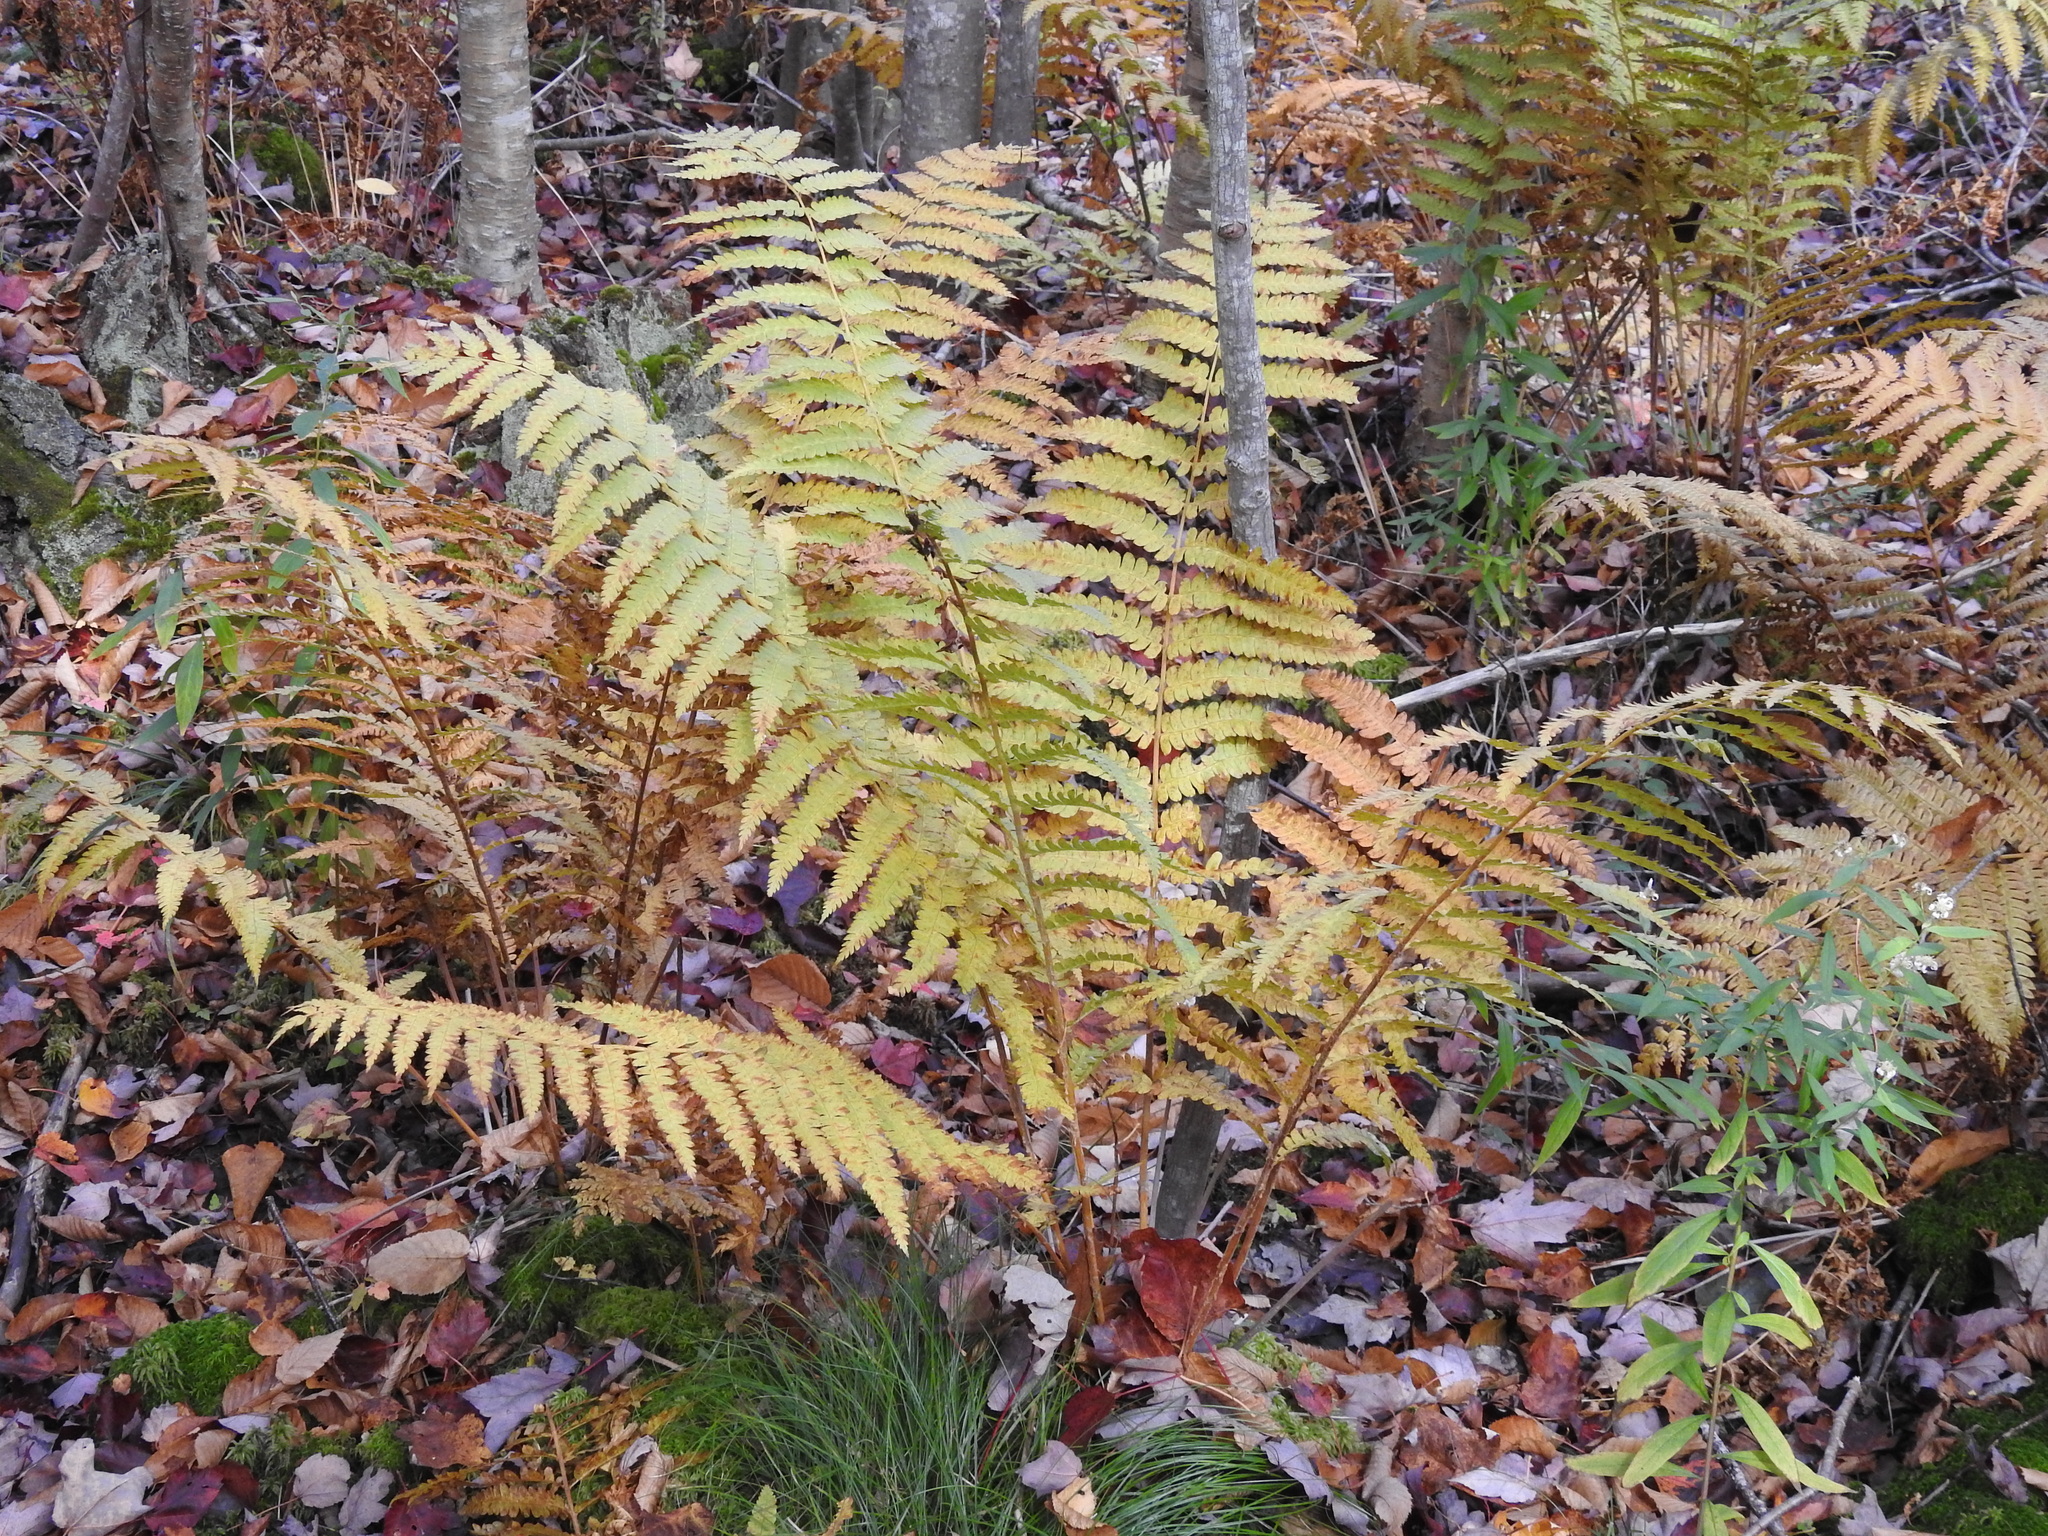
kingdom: Plantae
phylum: Tracheophyta
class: Polypodiopsida
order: Osmundales
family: Osmundaceae
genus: Osmundastrum
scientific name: Osmundastrum cinnamomeum
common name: Cinnamon fern
